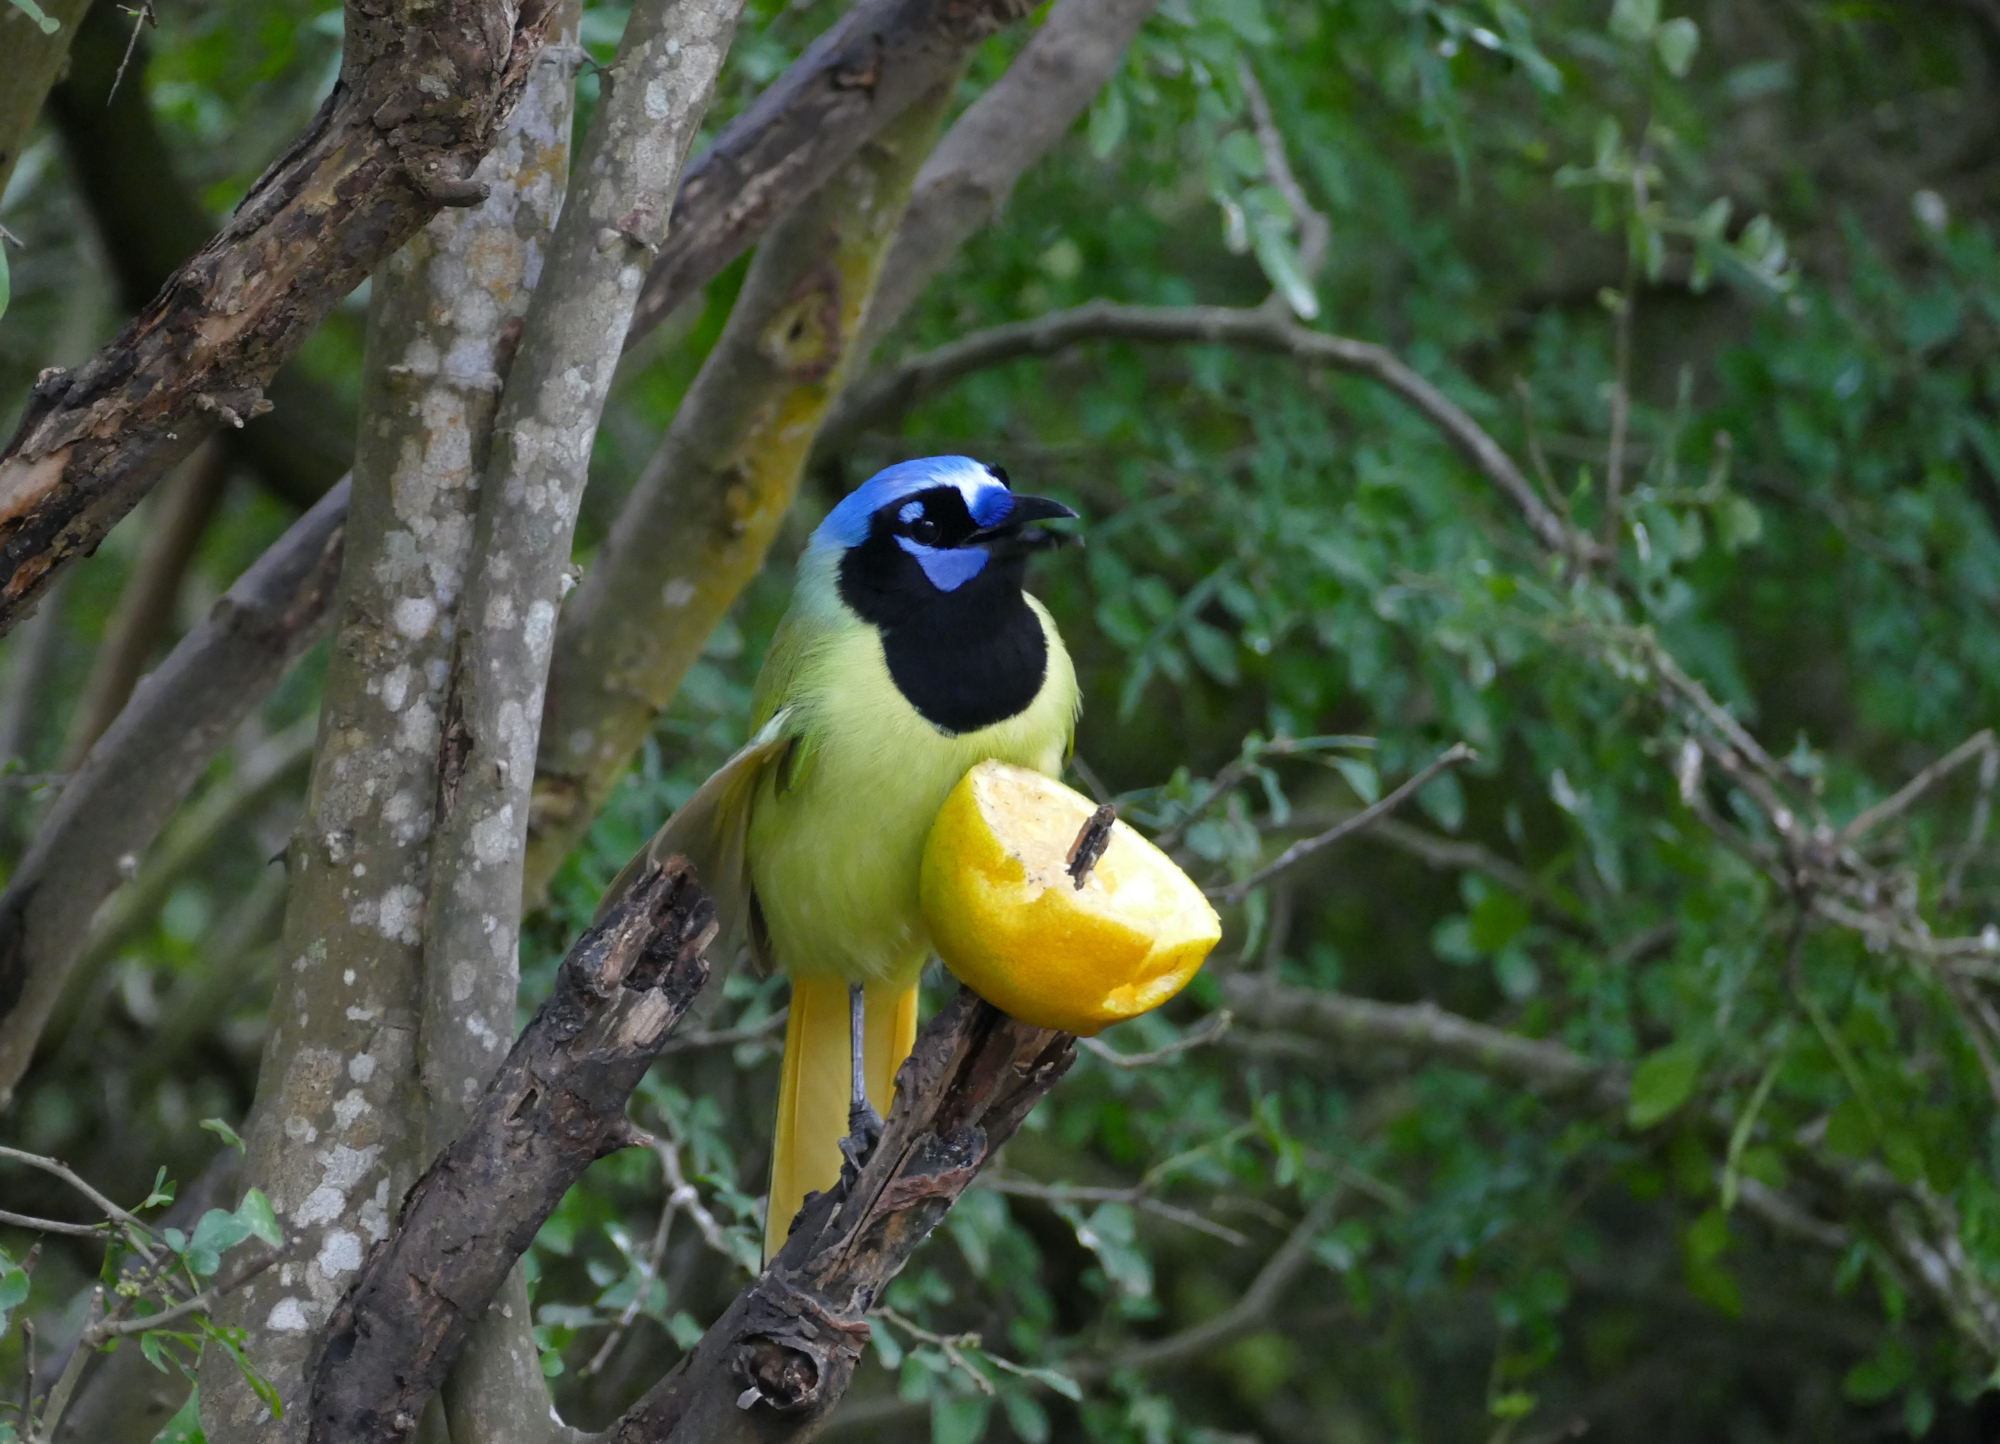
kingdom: Animalia
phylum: Chordata
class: Aves
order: Passeriformes
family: Corvidae
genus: Cyanocorax
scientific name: Cyanocorax yncas
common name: Green jay
